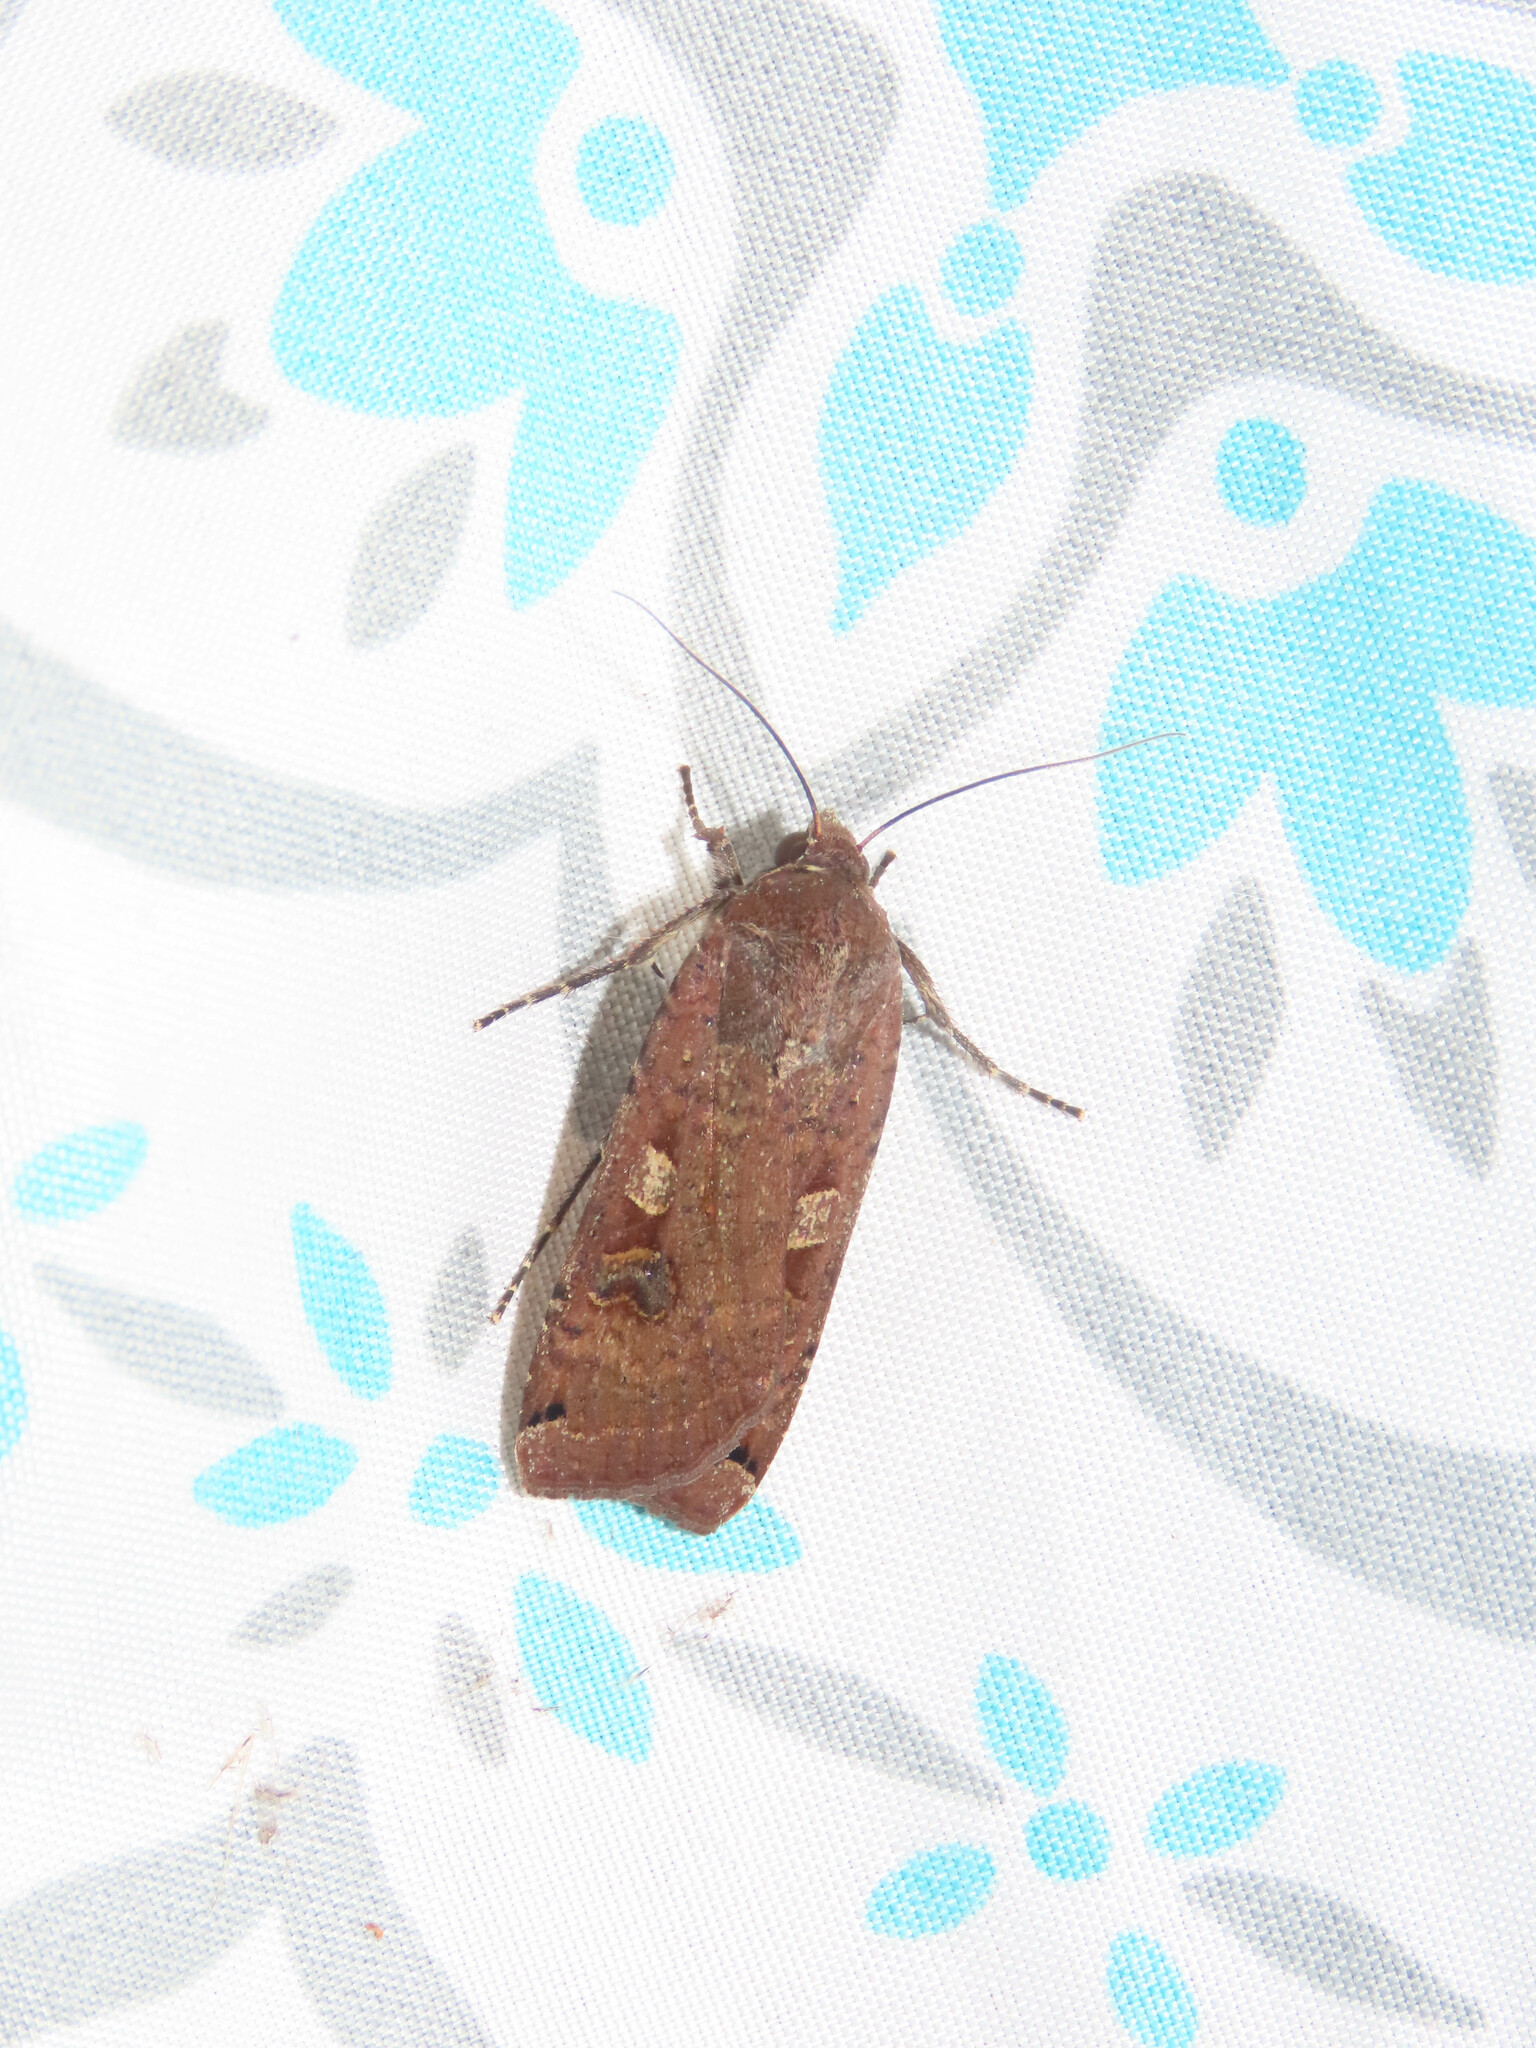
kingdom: Animalia
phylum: Arthropoda
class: Insecta
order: Lepidoptera
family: Noctuidae
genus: Noctua
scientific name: Noctua pronuba
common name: Large yellow underwing
